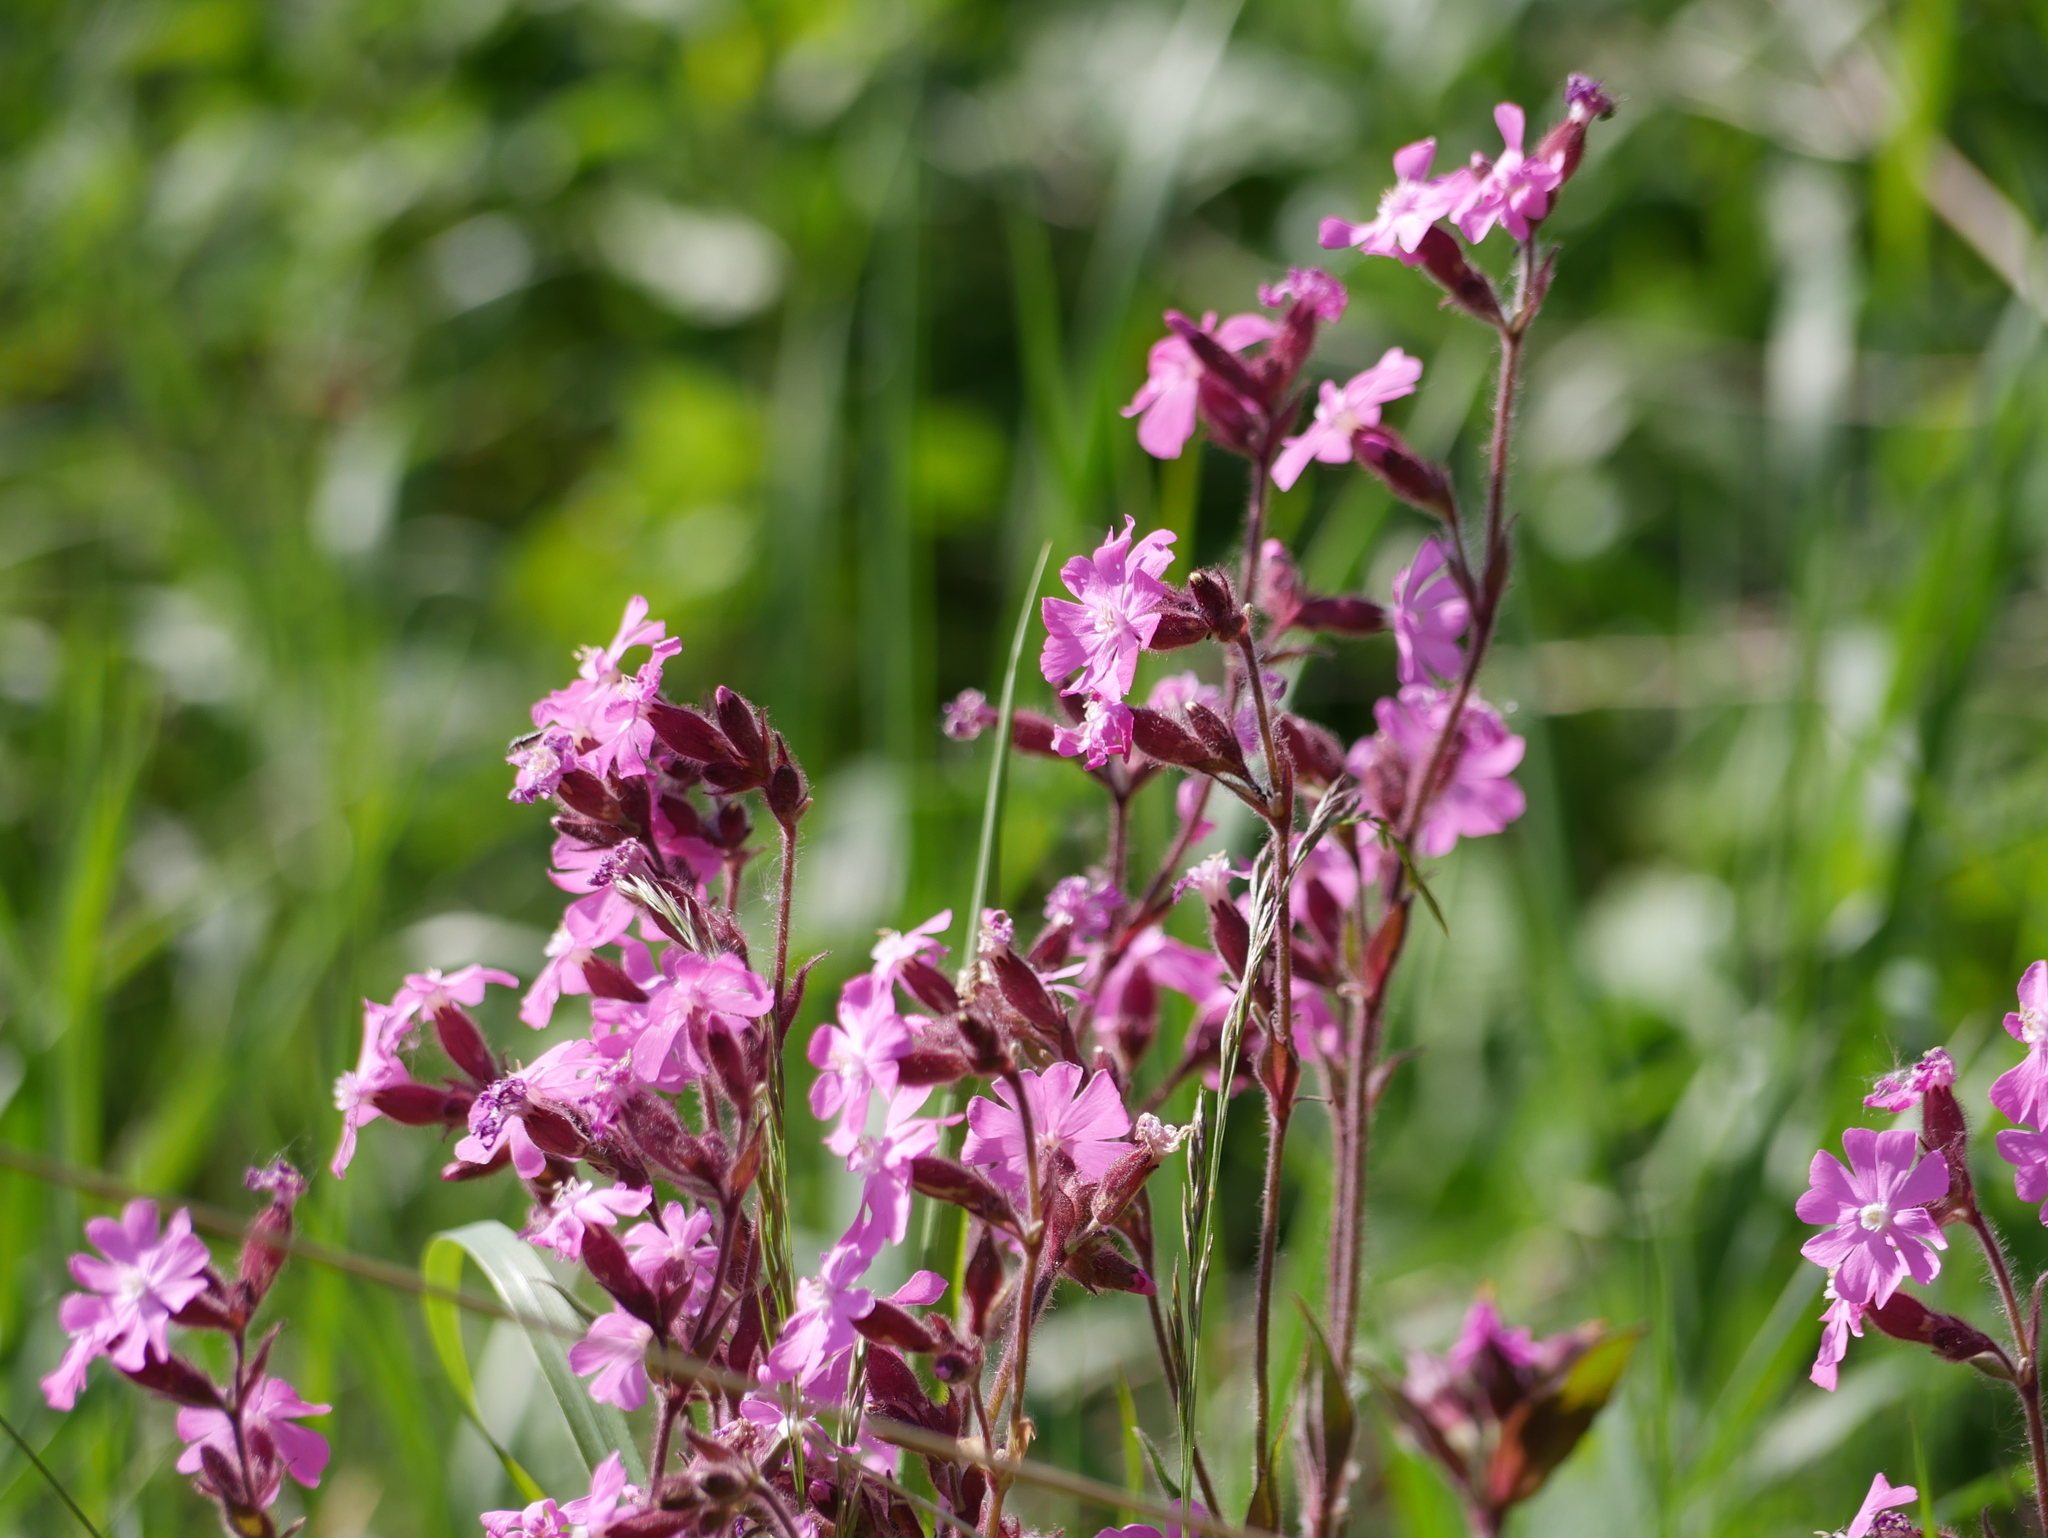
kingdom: Plantae
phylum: Tracheophyta
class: Magnoliopsida
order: Caryophyllales
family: Caryophyllaceae
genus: Viscaria
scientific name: Viscaria vulgaris
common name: Clammy campion
